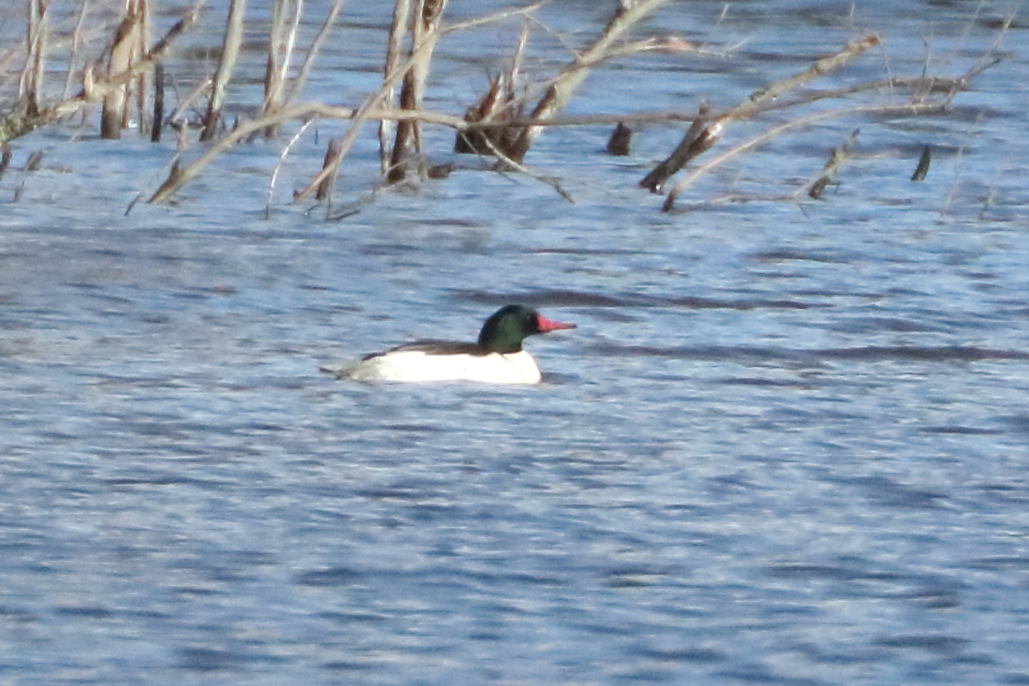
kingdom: Animalia
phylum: Chordata
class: Aves
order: Anseriformes
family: Anatidae
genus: Mergus
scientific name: Mergus merganser
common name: Common merganser
